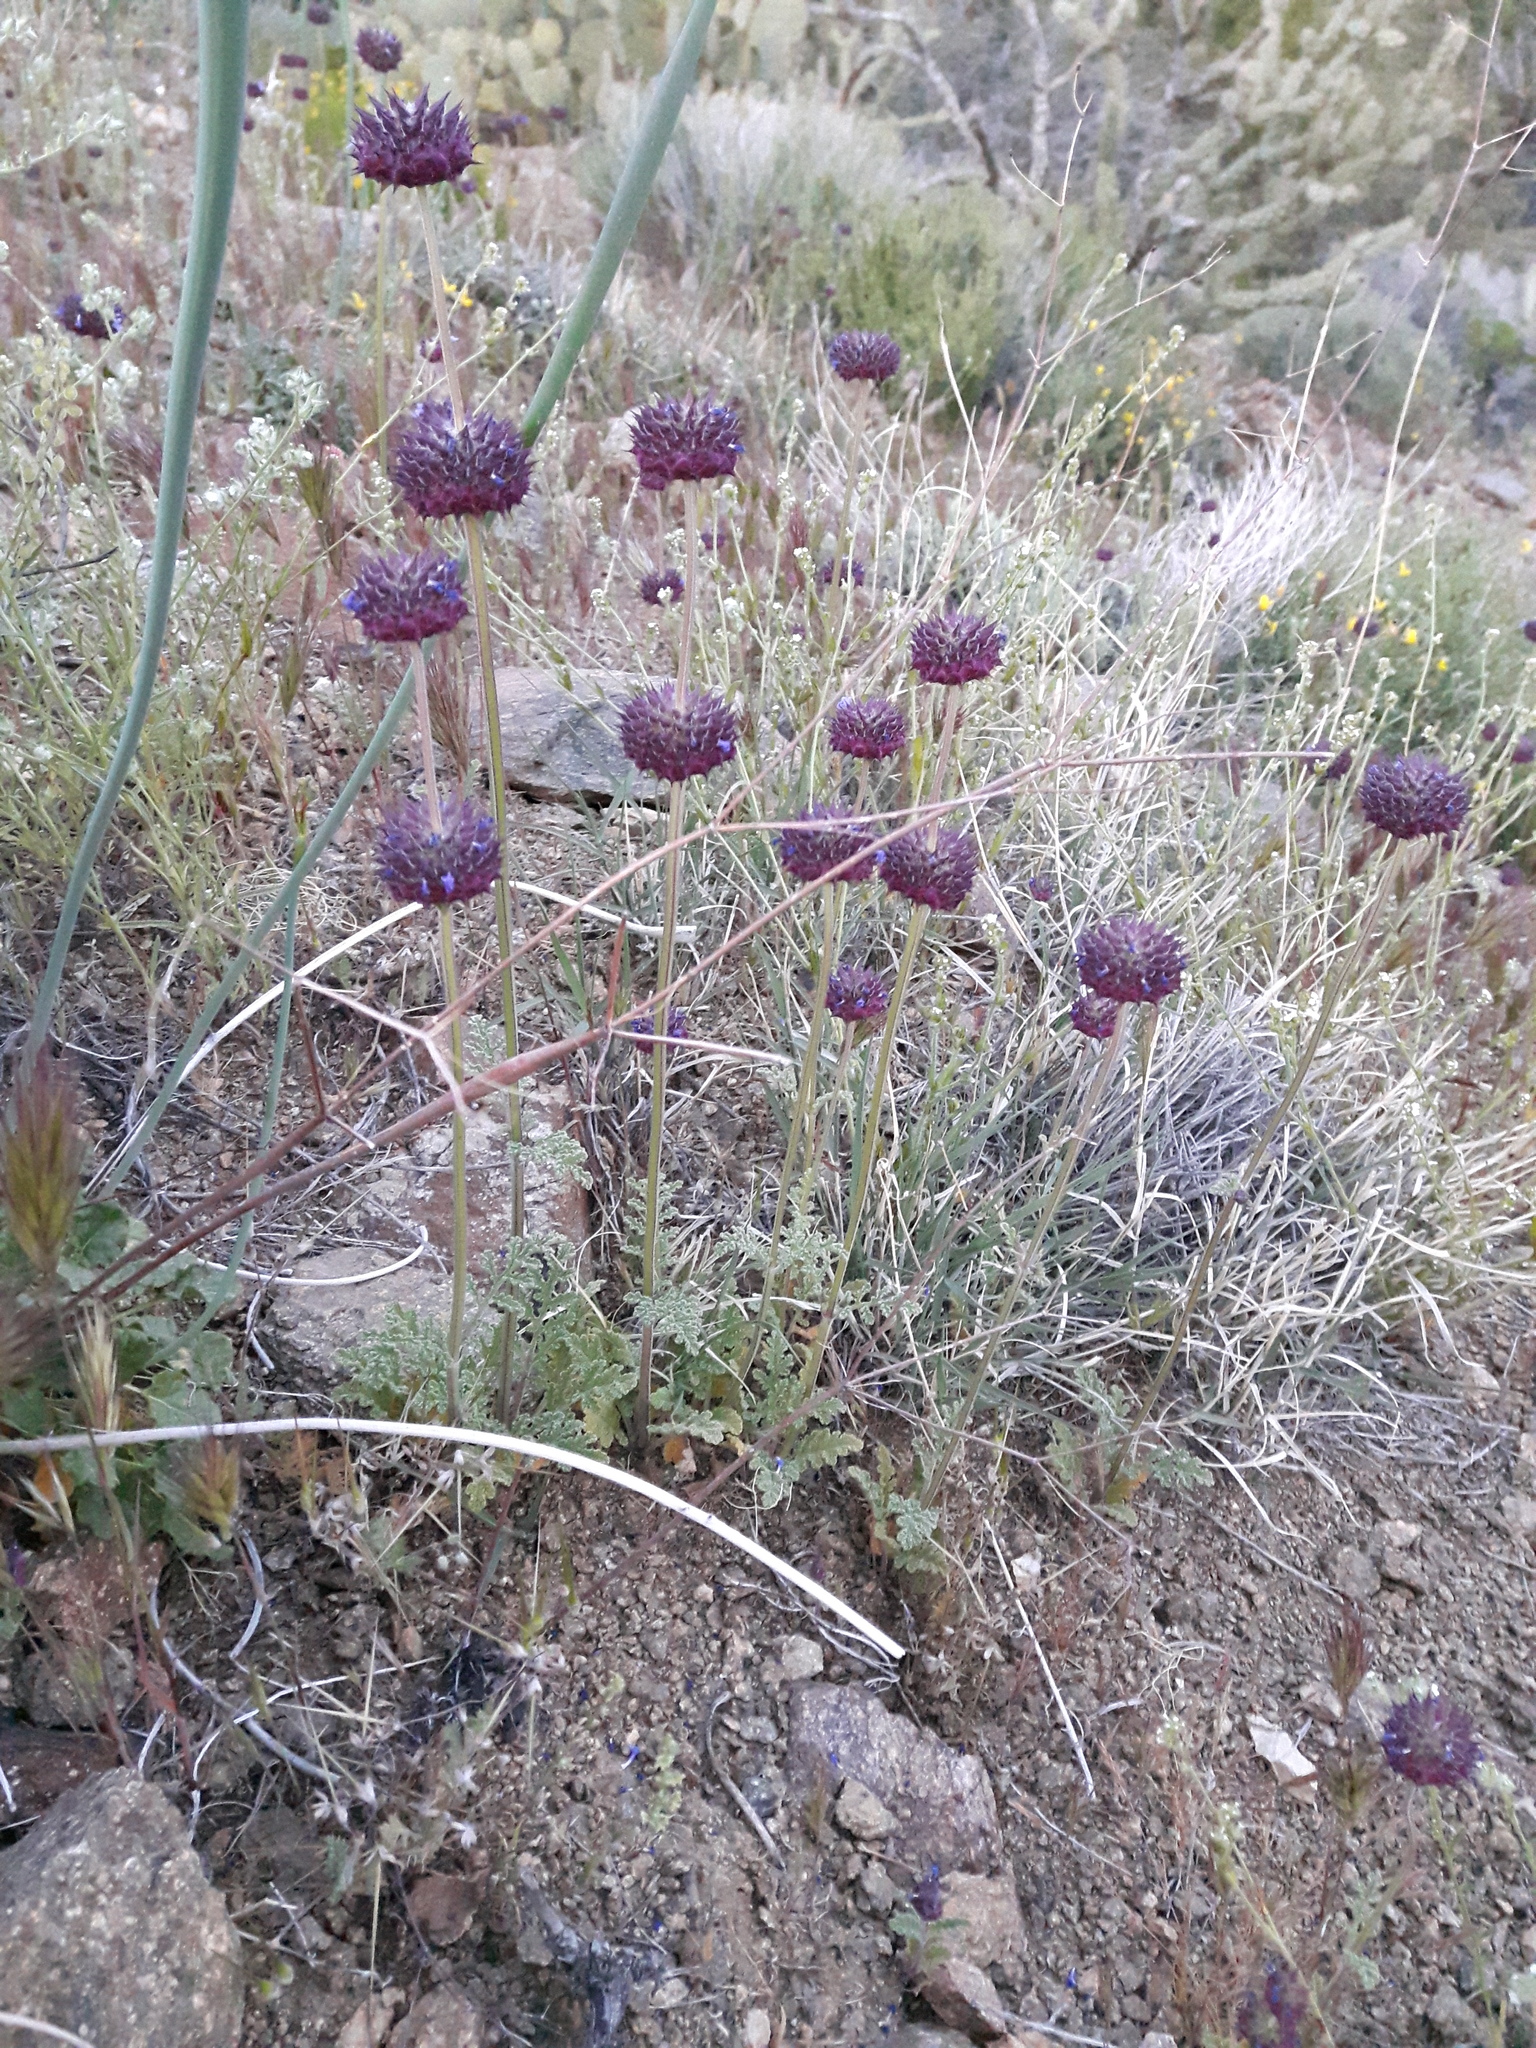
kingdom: Plantae
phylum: Tracheophyta
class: Magnoliopsida
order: Lamiales
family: Lamiaceae
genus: Salvia
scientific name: Salvia columbariae
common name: Chia
